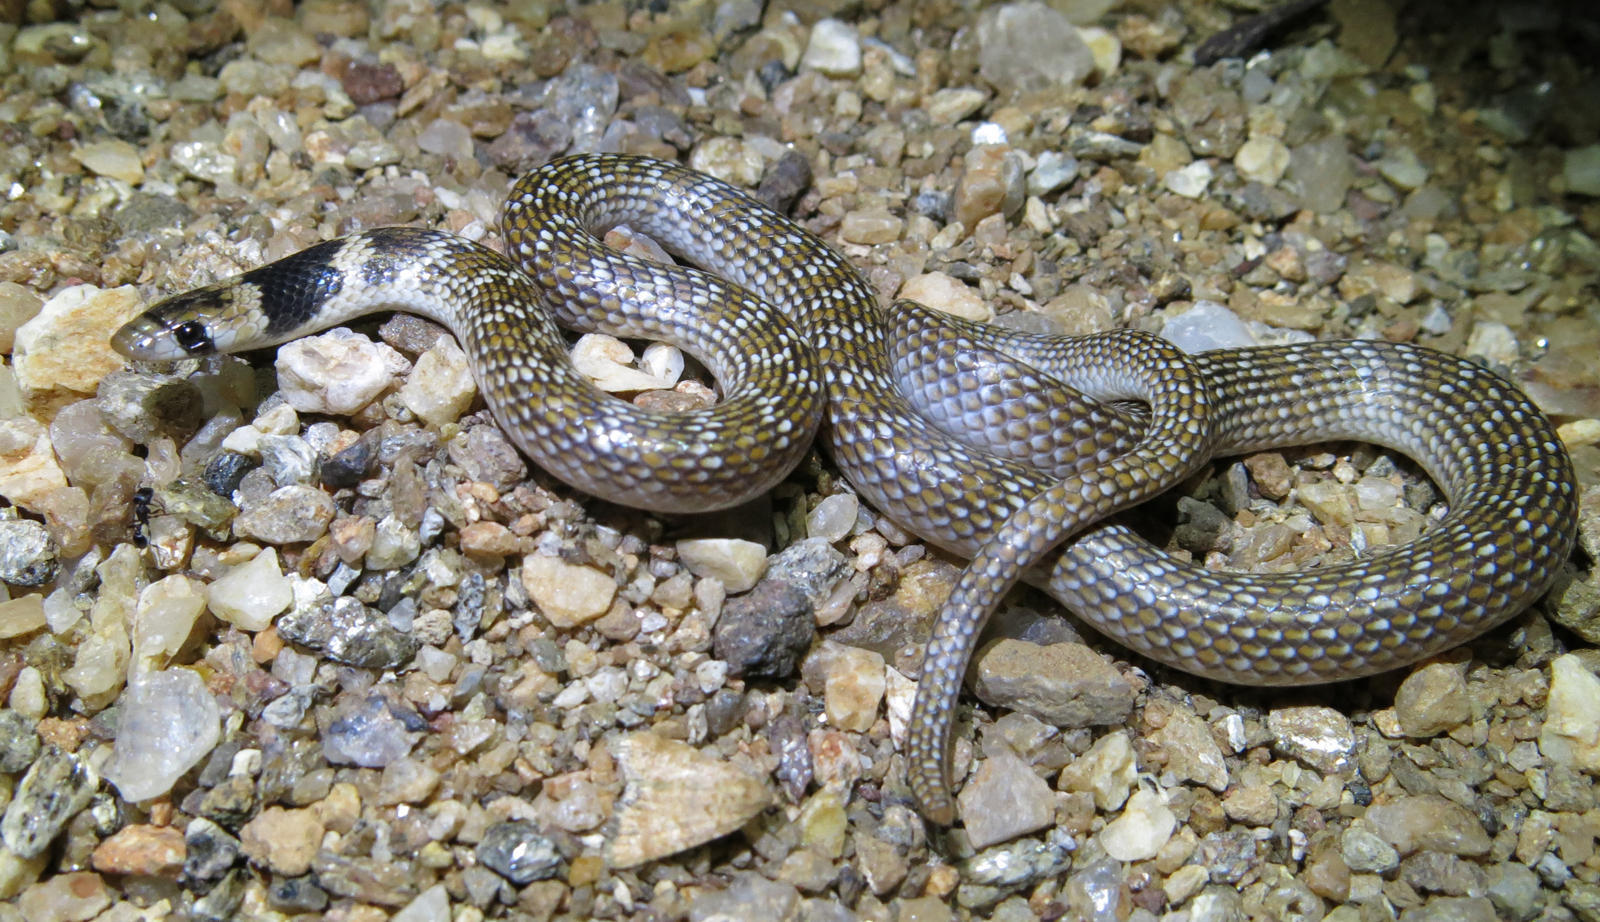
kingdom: Animalia
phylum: Chordata
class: Squamata
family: Prosymnidae
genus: Prosymna
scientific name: Prosymna frontalis
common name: Southwestern shovel-snout
